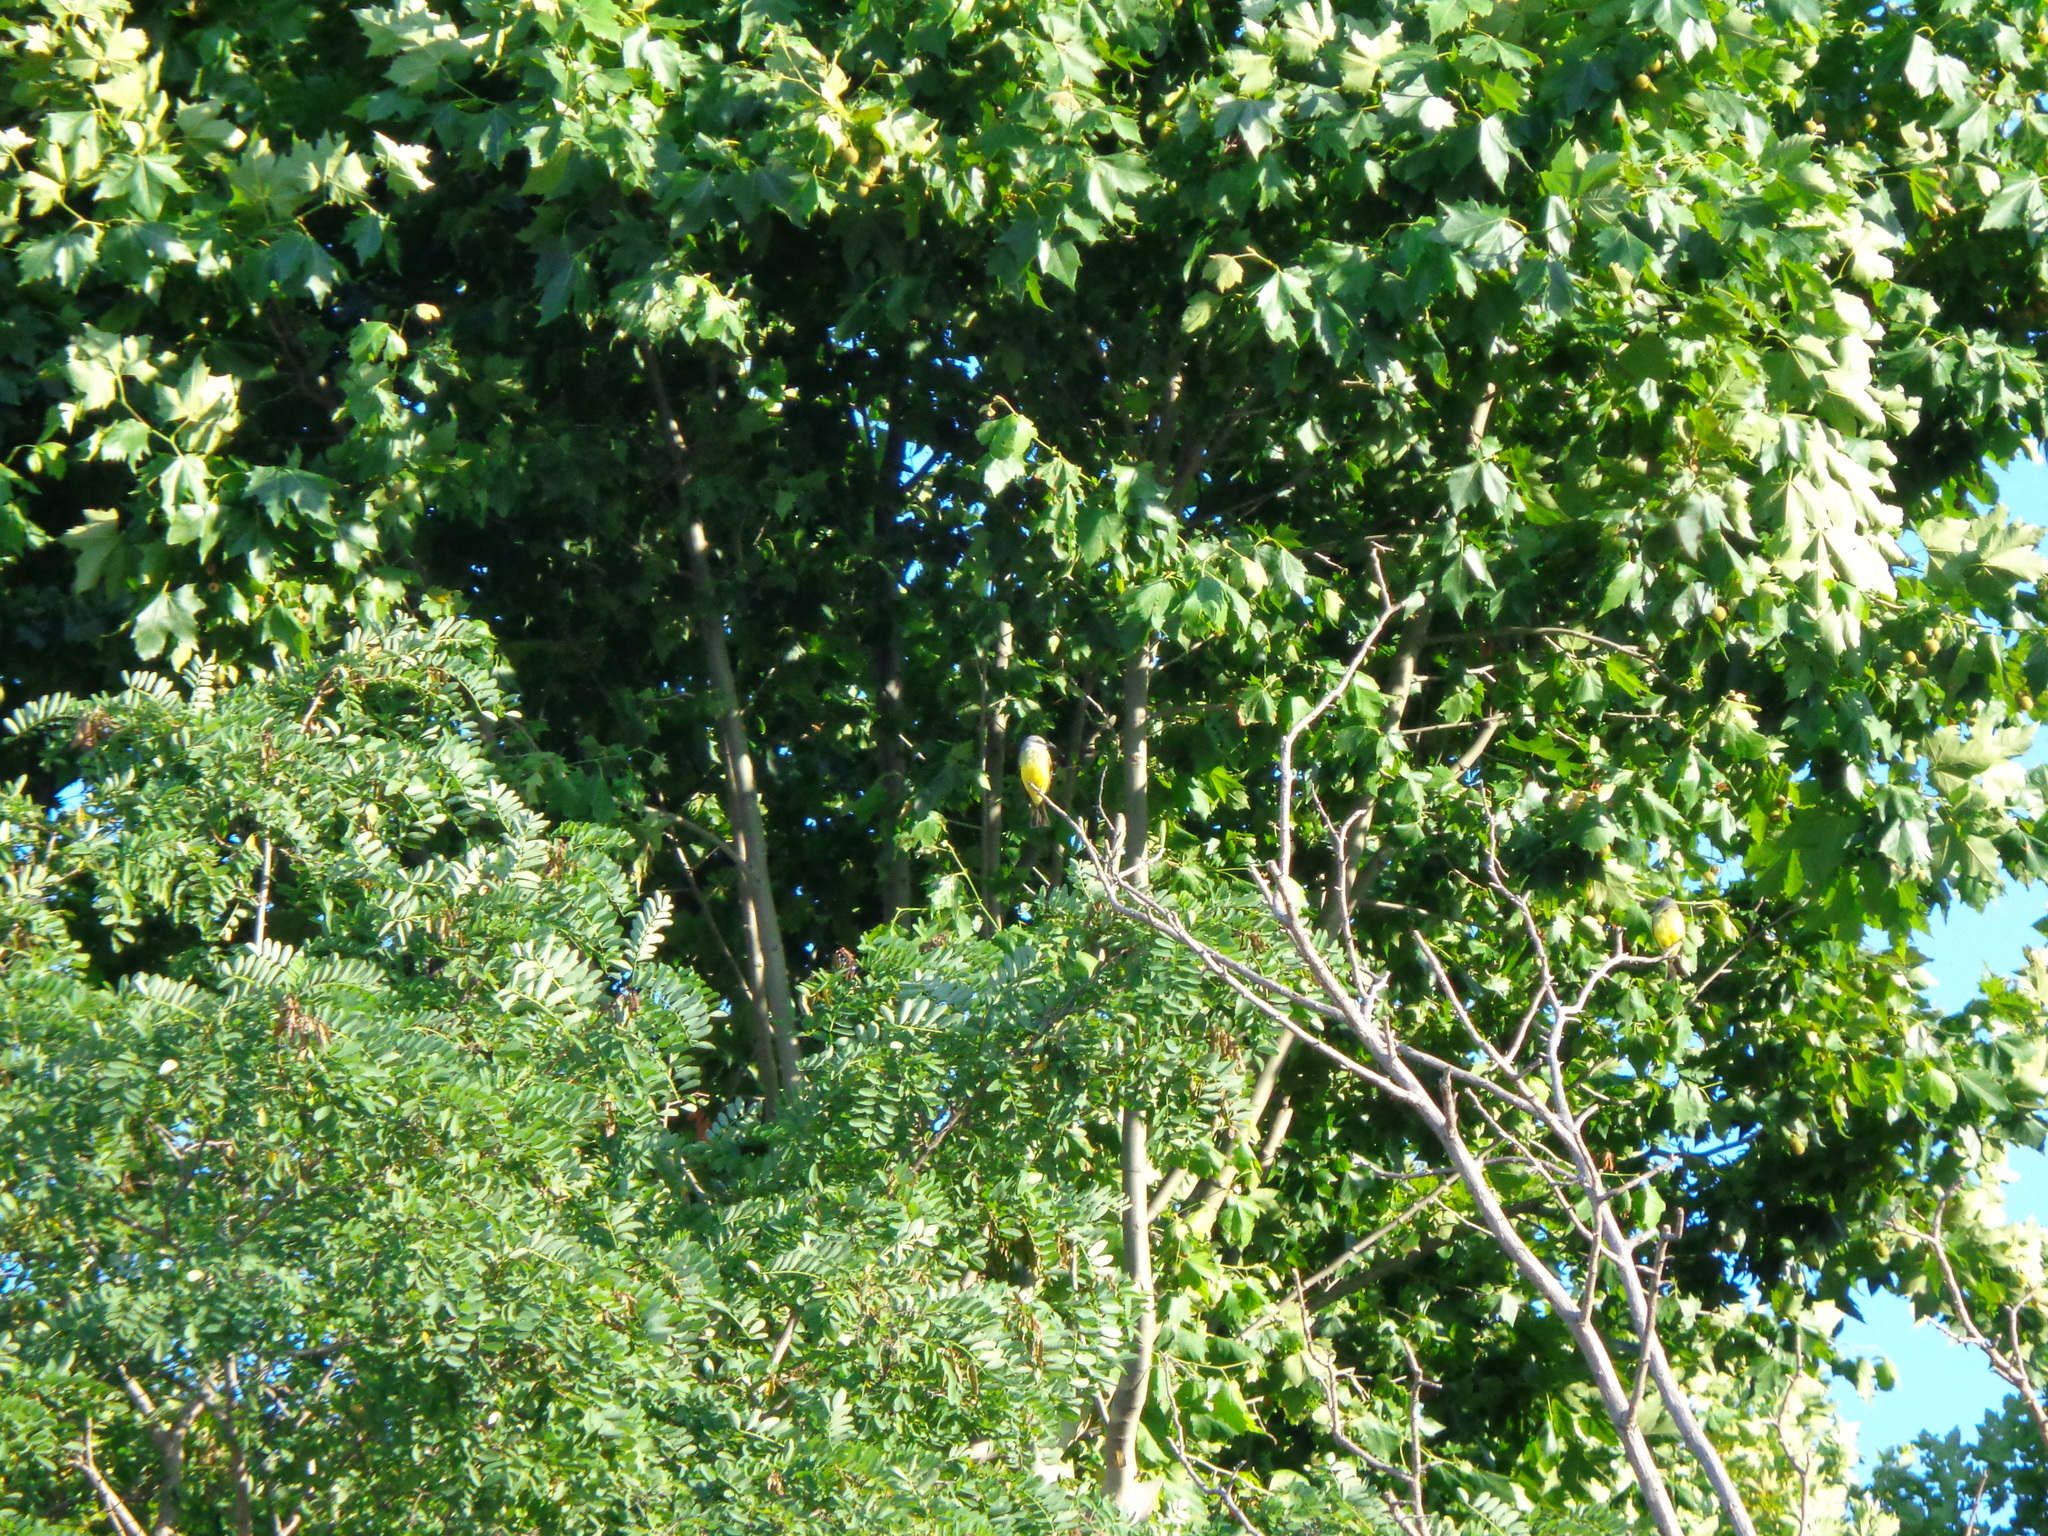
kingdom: Animalia
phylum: Chordata
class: Aves
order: Passeriformes
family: Tyrannidae
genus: Tyrannus
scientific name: Tyrannus melancholicus
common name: Tropical kingbird
